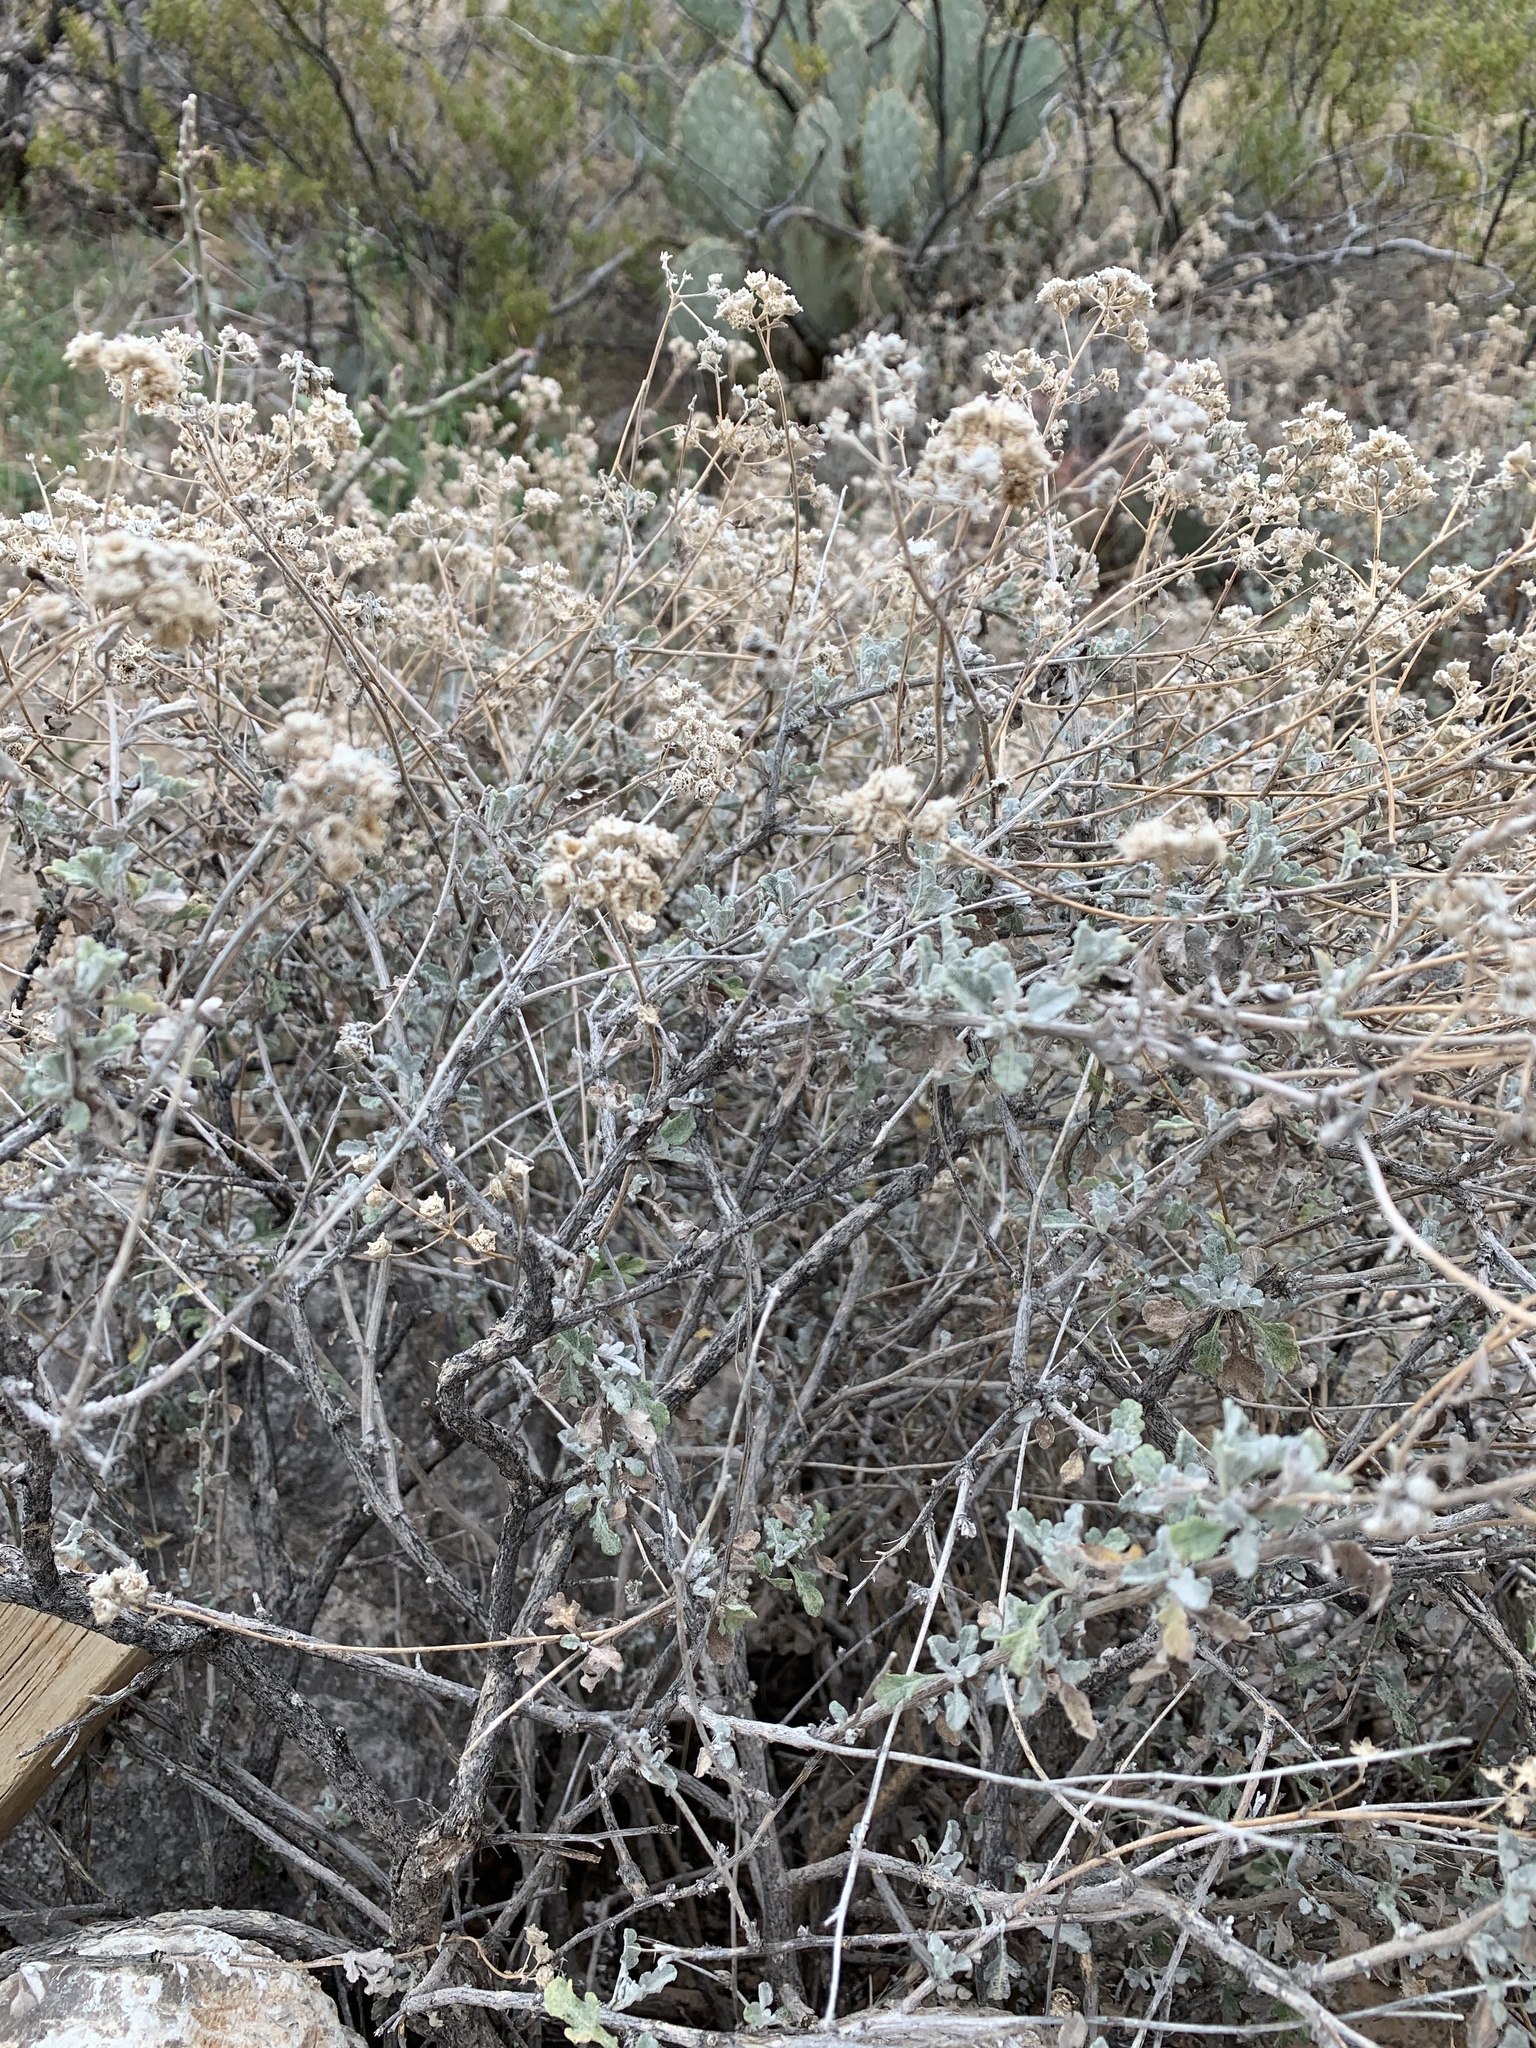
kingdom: Plantae
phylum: Tracheophyta
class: Magnoliopsida
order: Asterales
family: Asteraceae
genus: Parthenium
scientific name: Parthenium incanum
